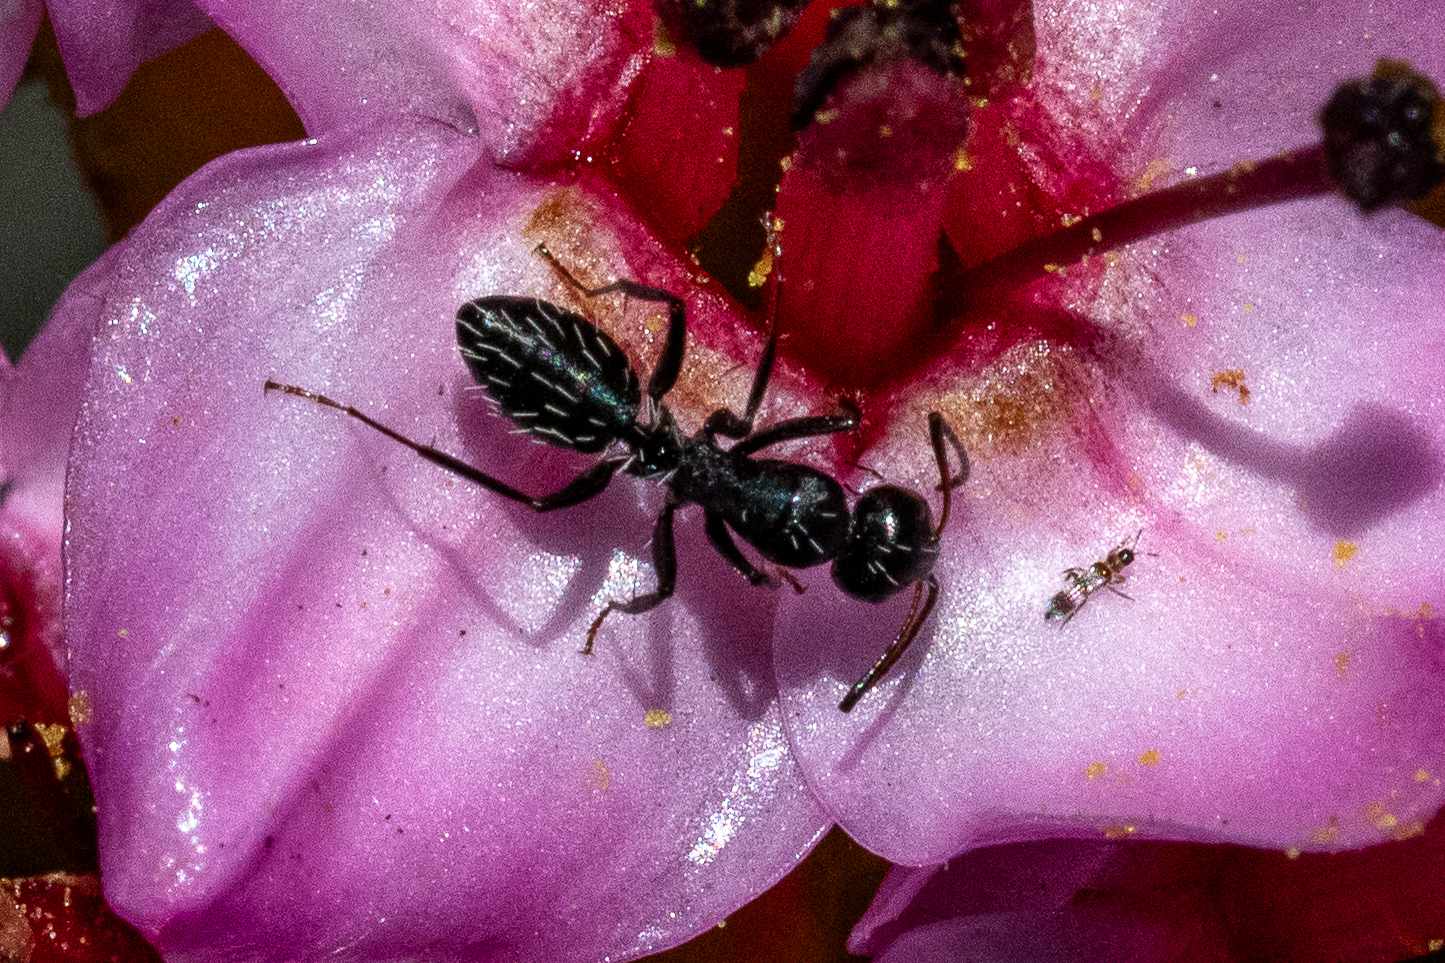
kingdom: Animalia
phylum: Arthropoda
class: Insecta
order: Hymenoptera
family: Formicidae
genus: Camponotus
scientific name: Camponotus niveosetosus
